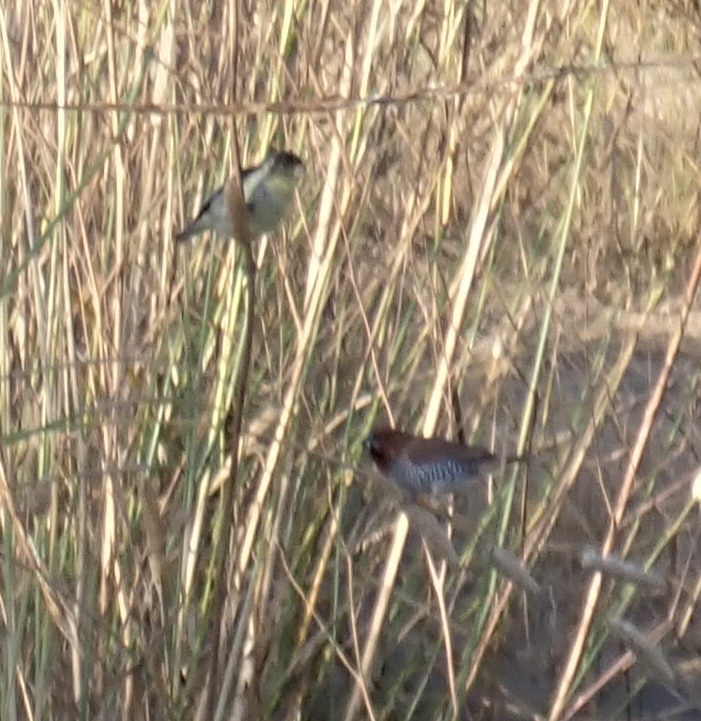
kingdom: Animalia
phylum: Chordata
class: Aves
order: Passeriformes
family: Estrildidae
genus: Lonchura
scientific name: Lonchura punctulata
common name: Scaly-breasted munia
